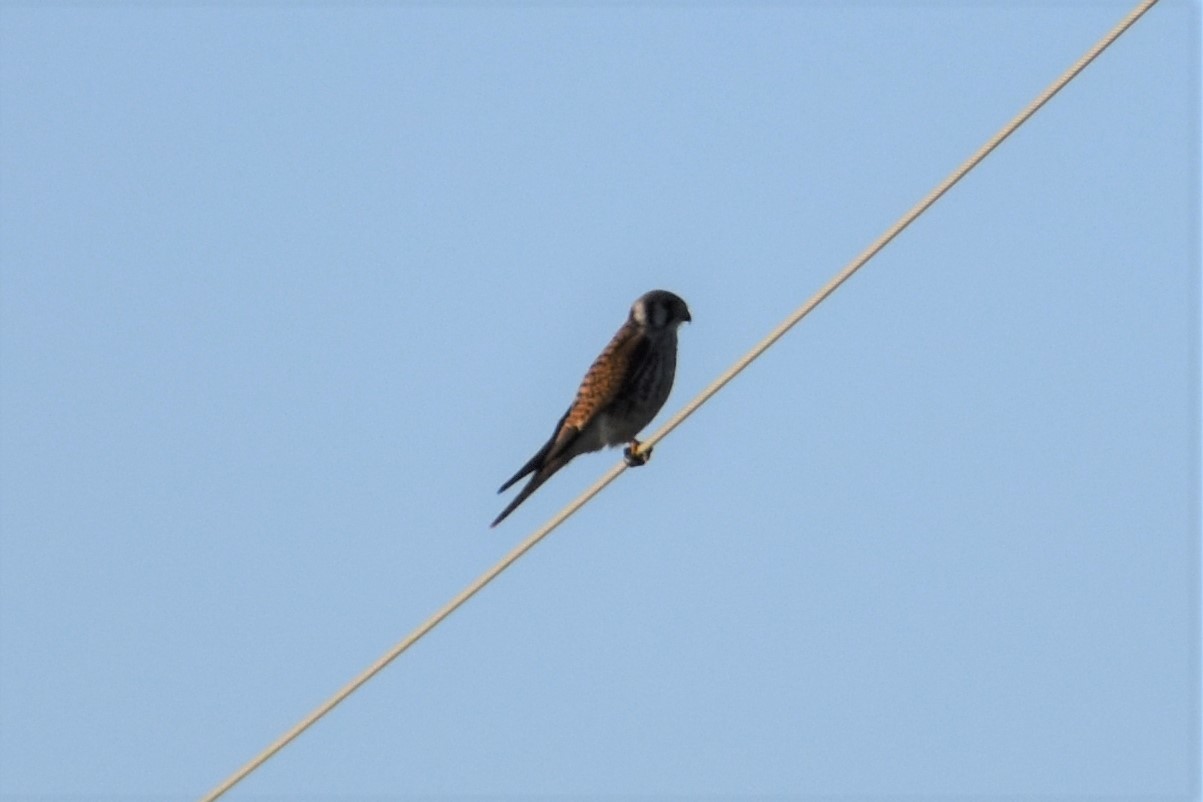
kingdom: Animalia
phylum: Chordata
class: Aves
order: Falconiformes
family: Falconidae
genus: Falco
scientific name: Falco sparverius
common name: American kestrel
